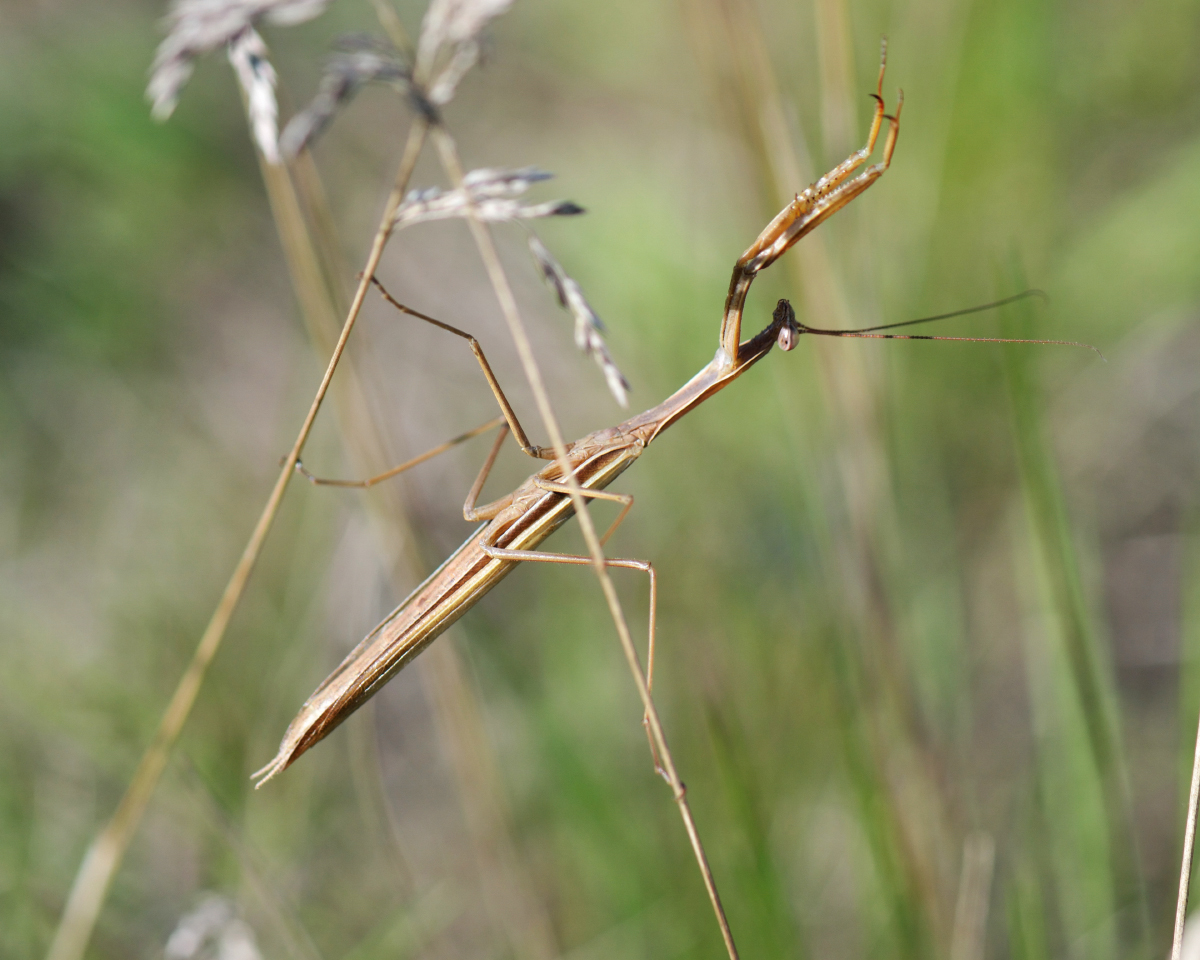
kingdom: Animalia
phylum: Arthropoda
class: Insecta
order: Mantodea
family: Mantidae
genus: Mantis
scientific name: Mantis religiosa
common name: Praying mantis
